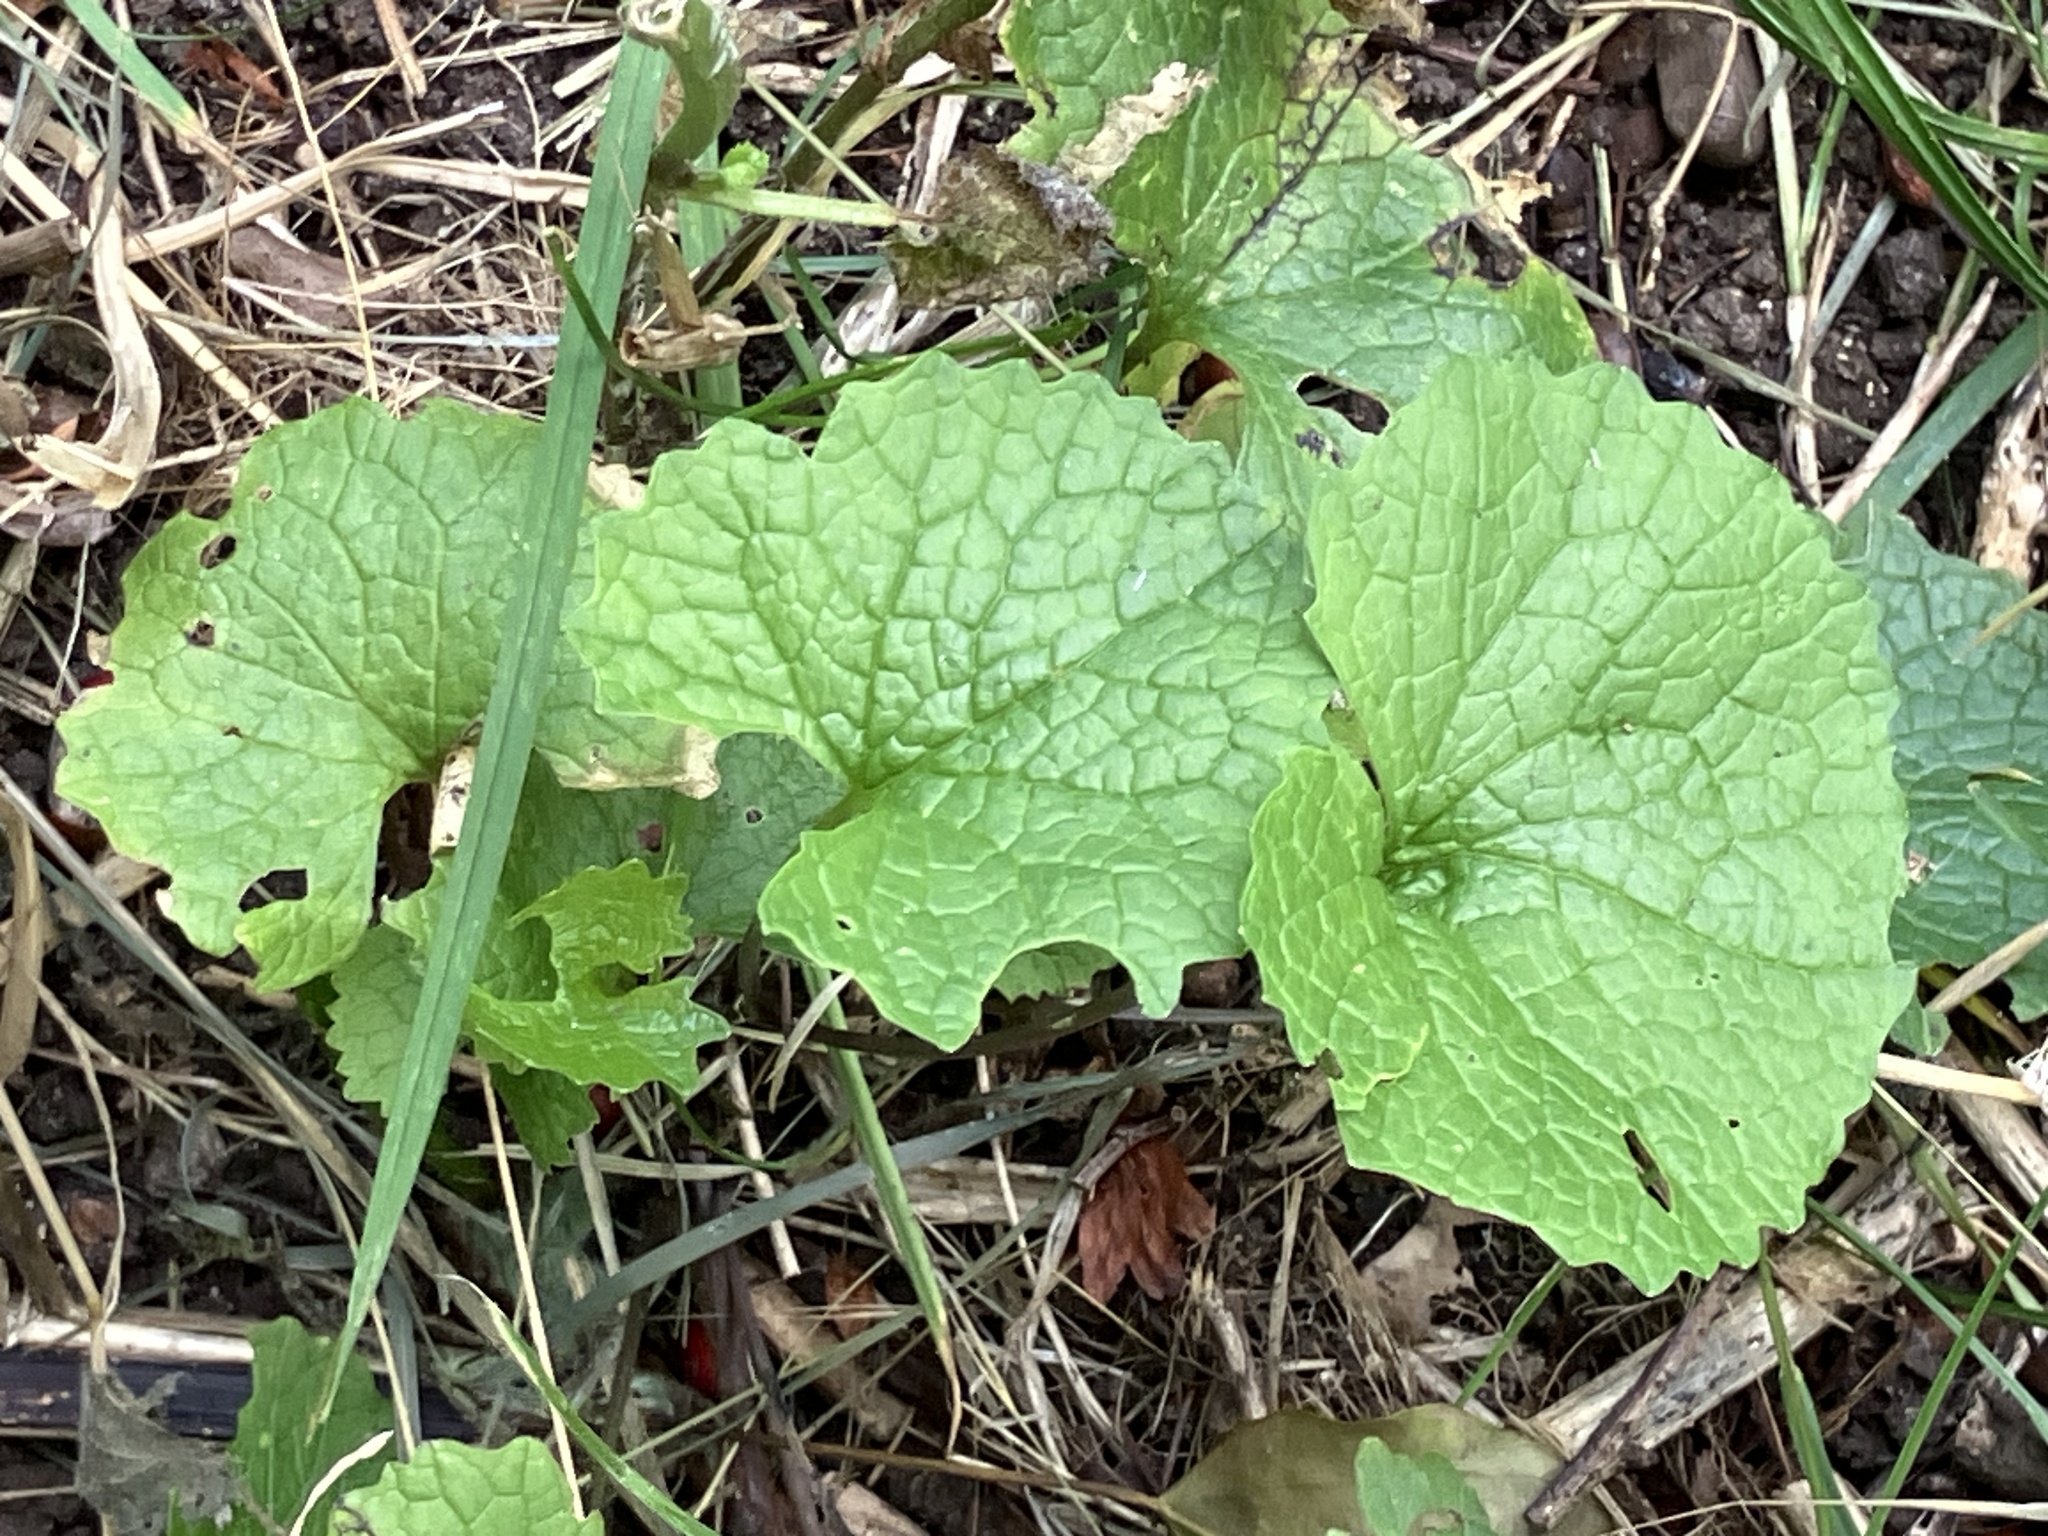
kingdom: Plantae
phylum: Tracheophyta
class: Magnoliopsida
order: Brassicales
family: Brassicaceae
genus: Alliaria
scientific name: Alliaria petiolata
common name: Garlic mustard
